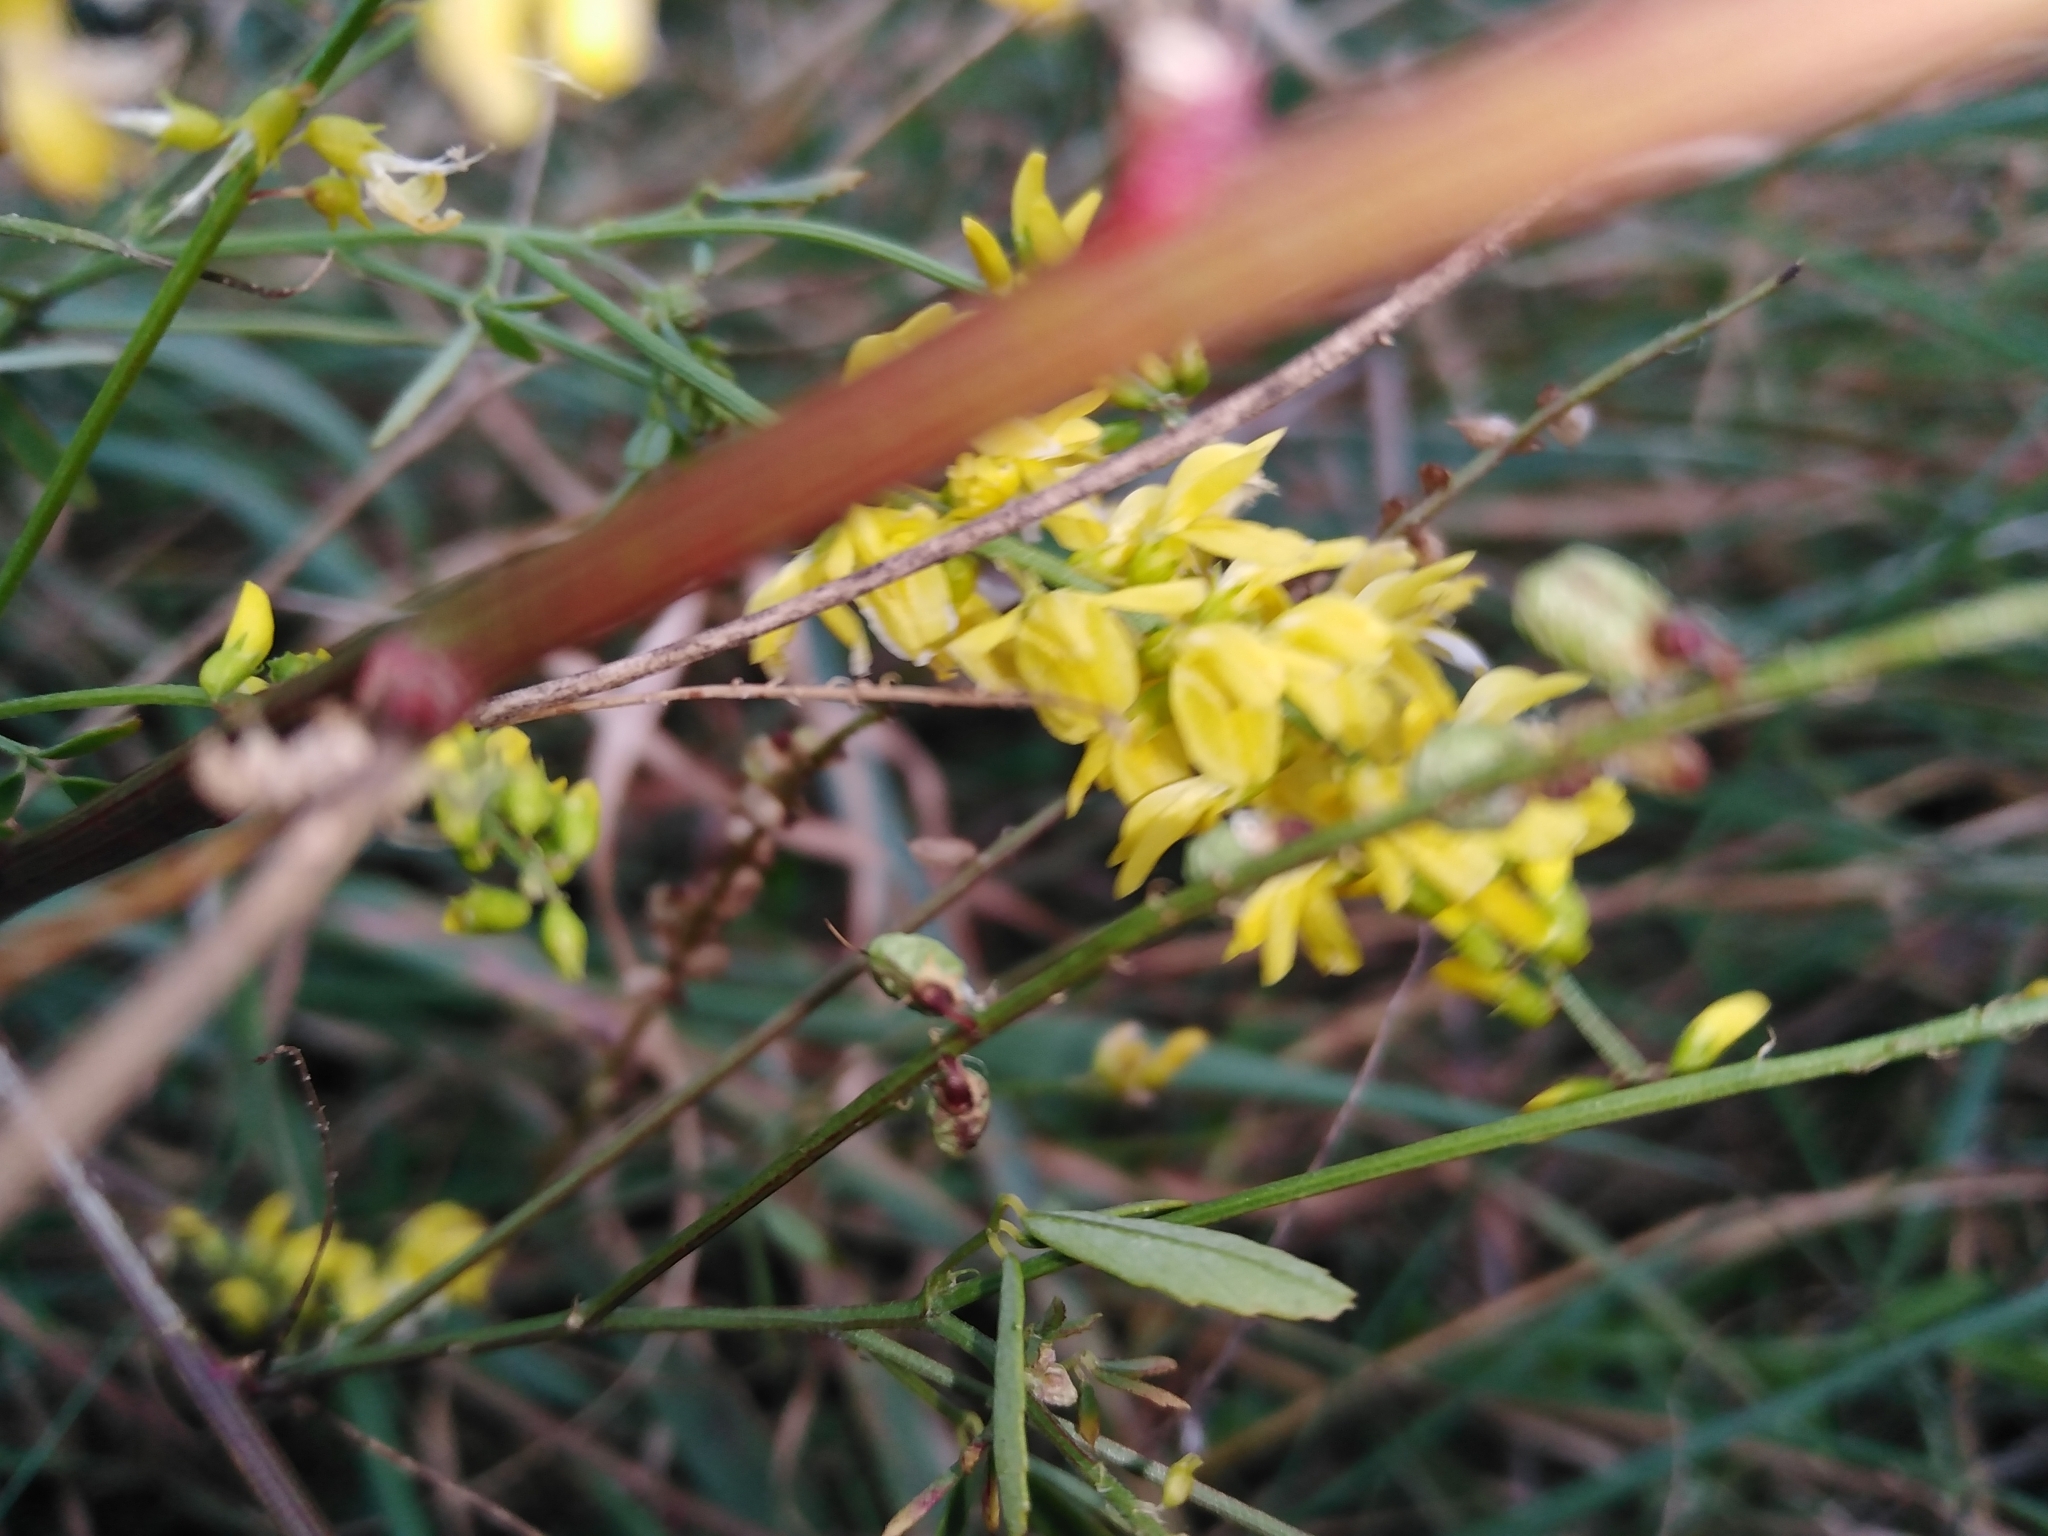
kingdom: Plantae
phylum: Tracheophyta
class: Magnoliopsida
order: Fabales
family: Fabaceae
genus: Melilotus
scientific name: Melilotus officinalis
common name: Sweetclover
